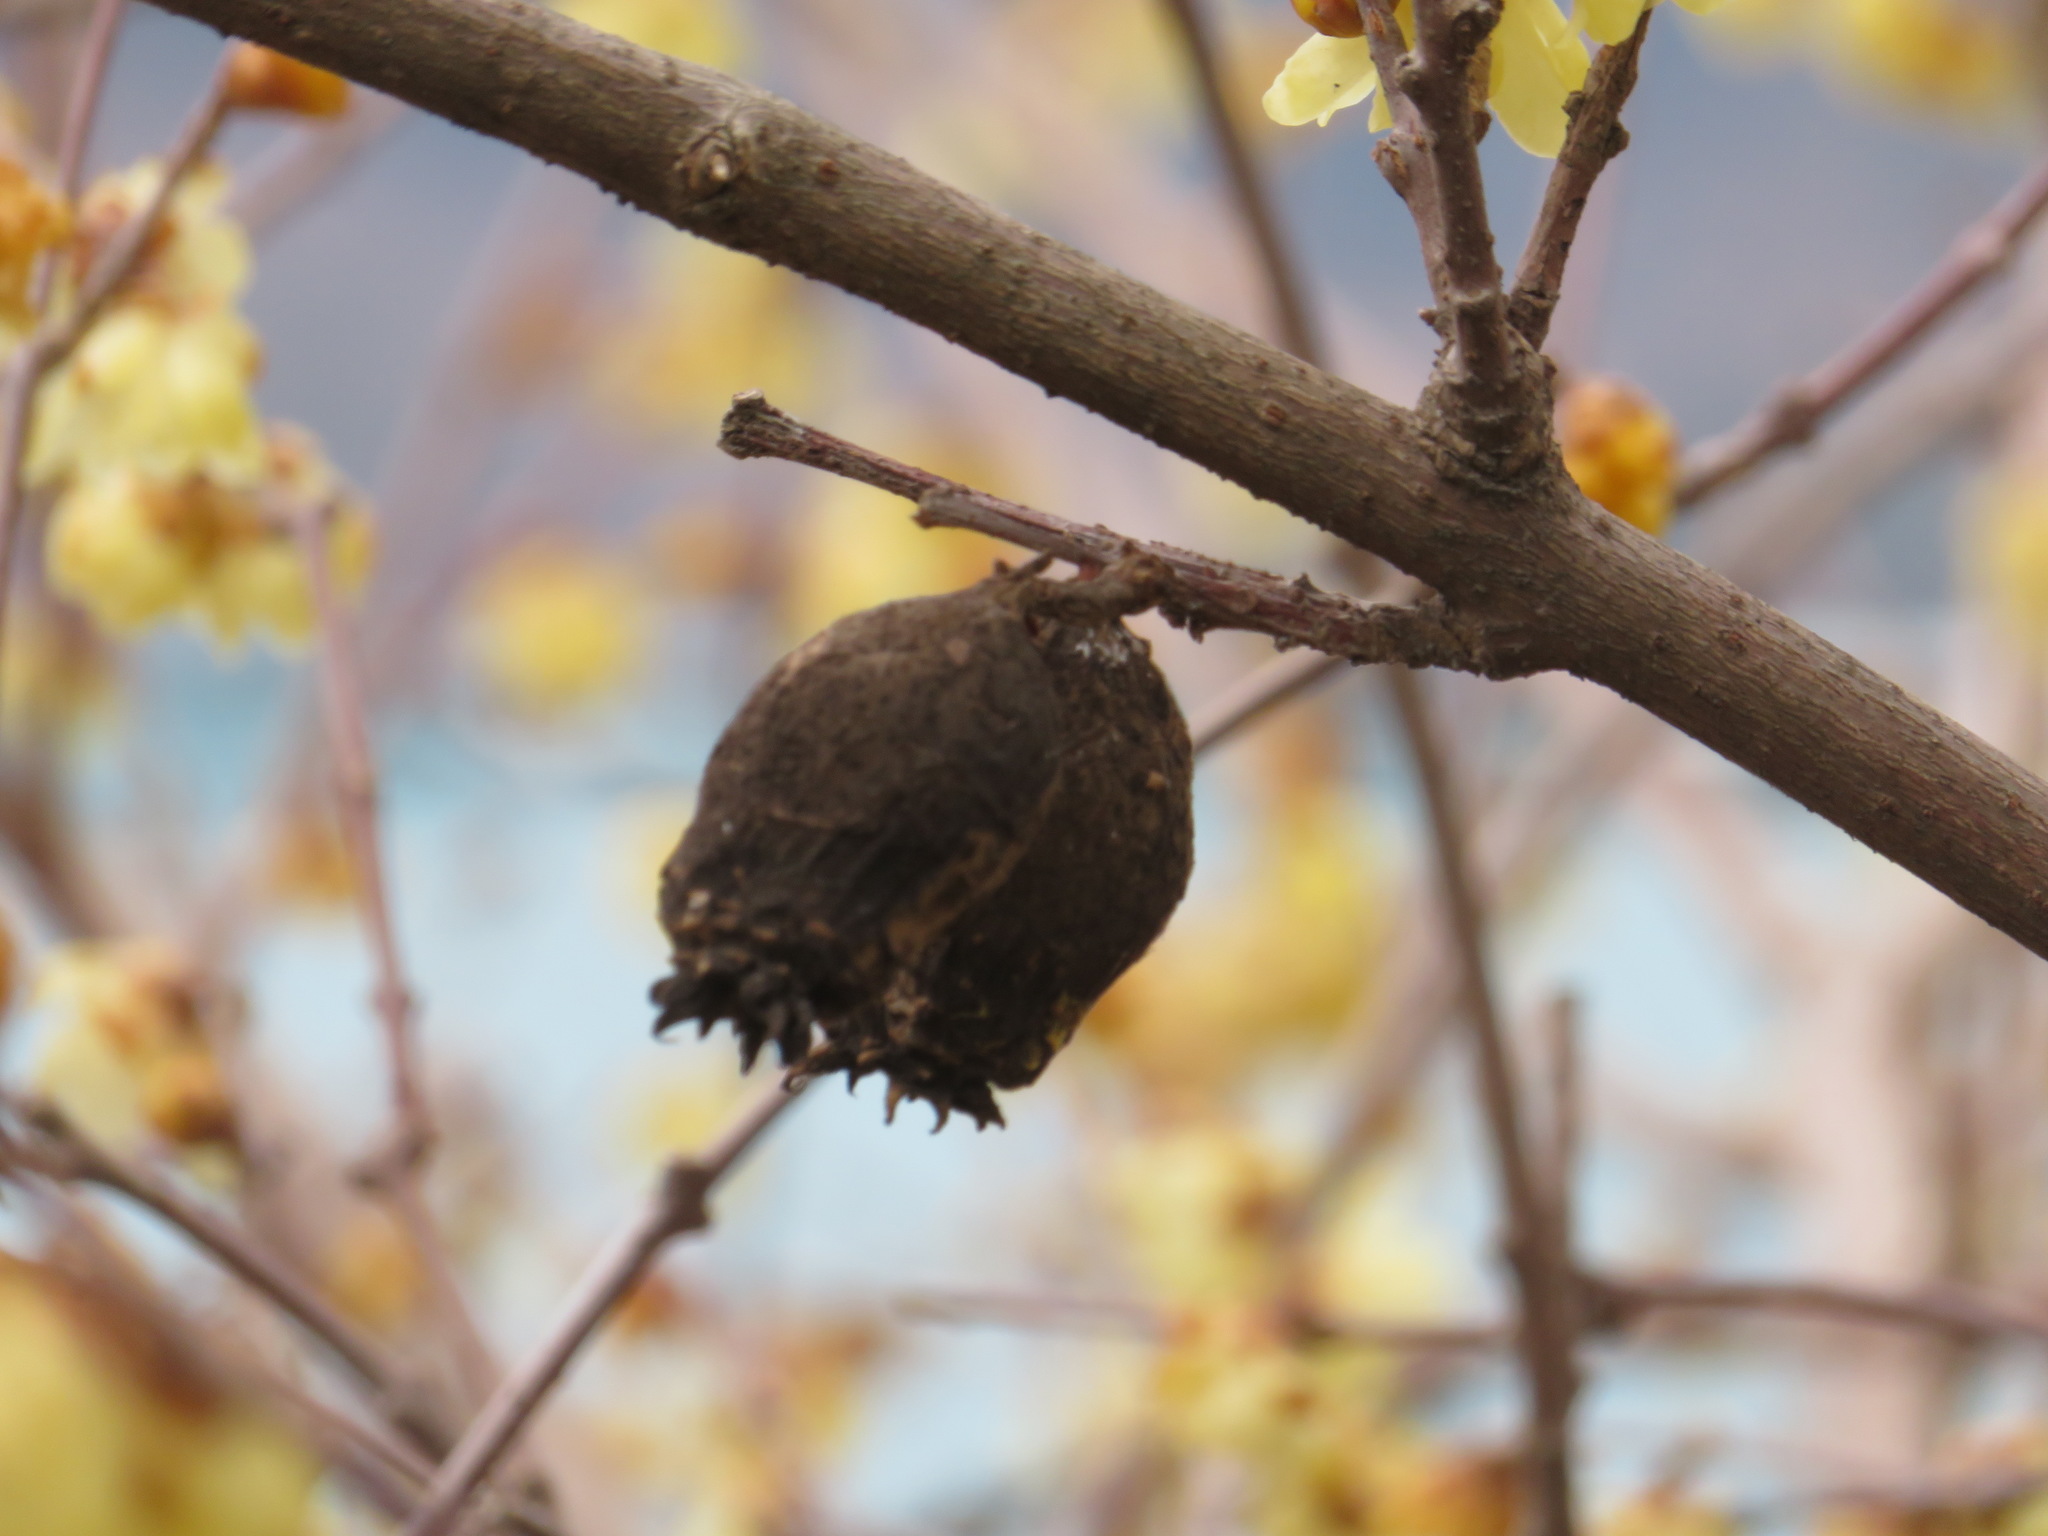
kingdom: Plantae
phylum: Tracheophyta
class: Magnoliopsida
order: Laurales
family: Calycanthaceae
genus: Chimonanthus
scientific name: Chimonanthus praecox
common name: Wintersweet
